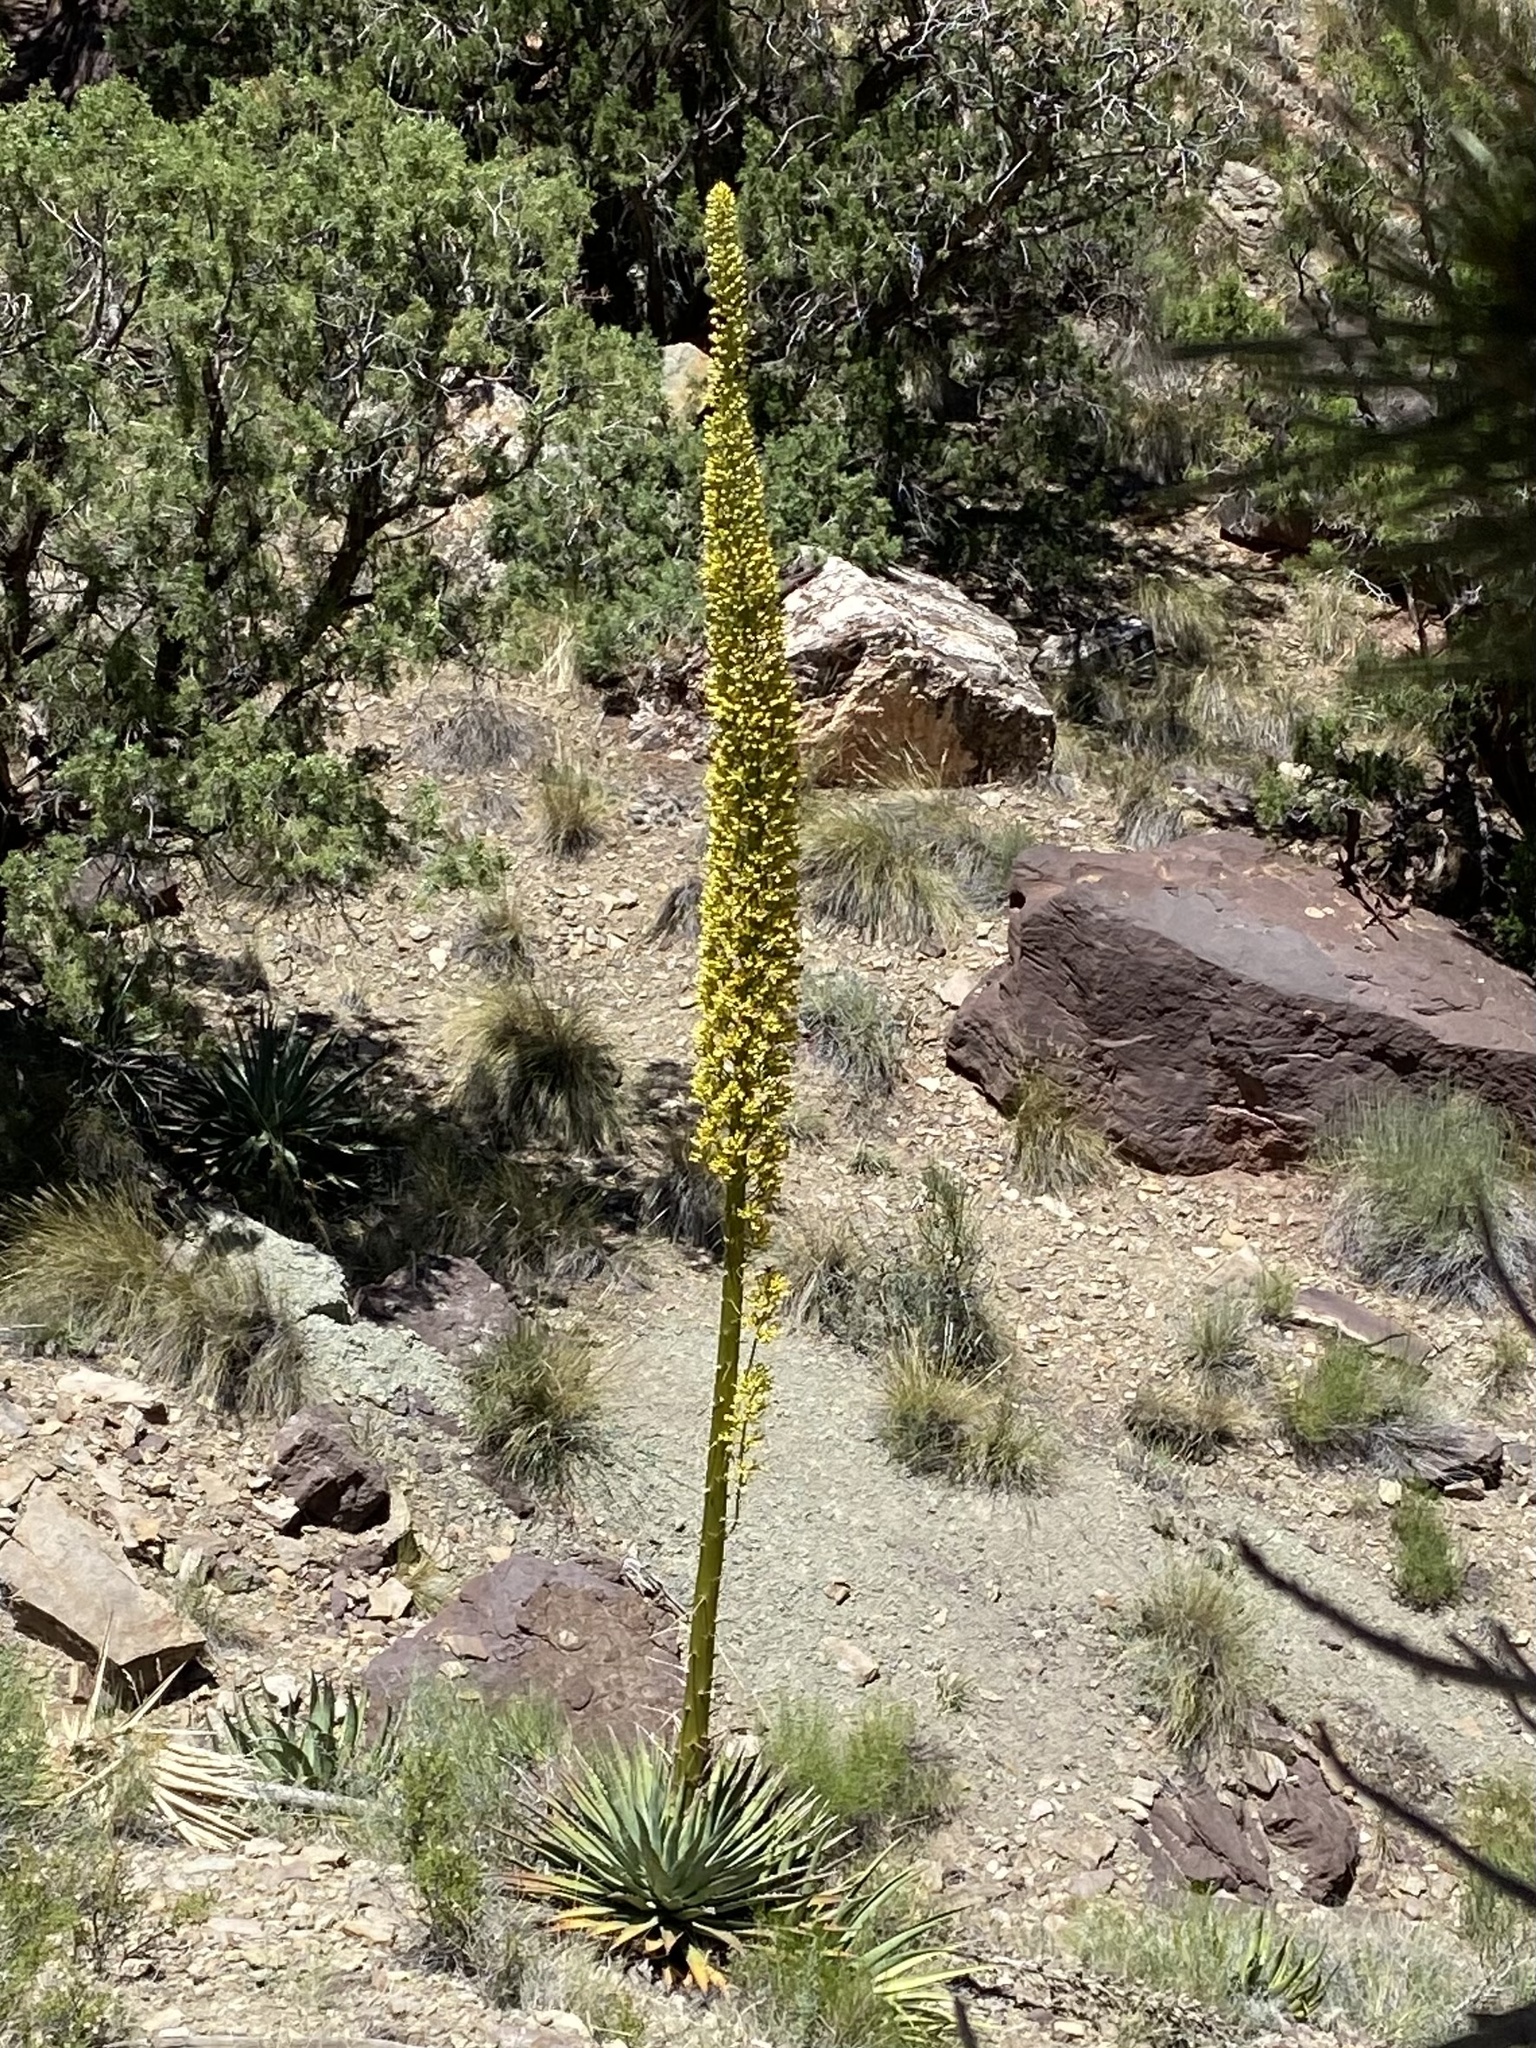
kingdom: Plantae
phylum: Tracheophyta
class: Liliopsida
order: Asparagales
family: Asparagaceae
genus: Agave
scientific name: Agave utahensis
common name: Utah agave
